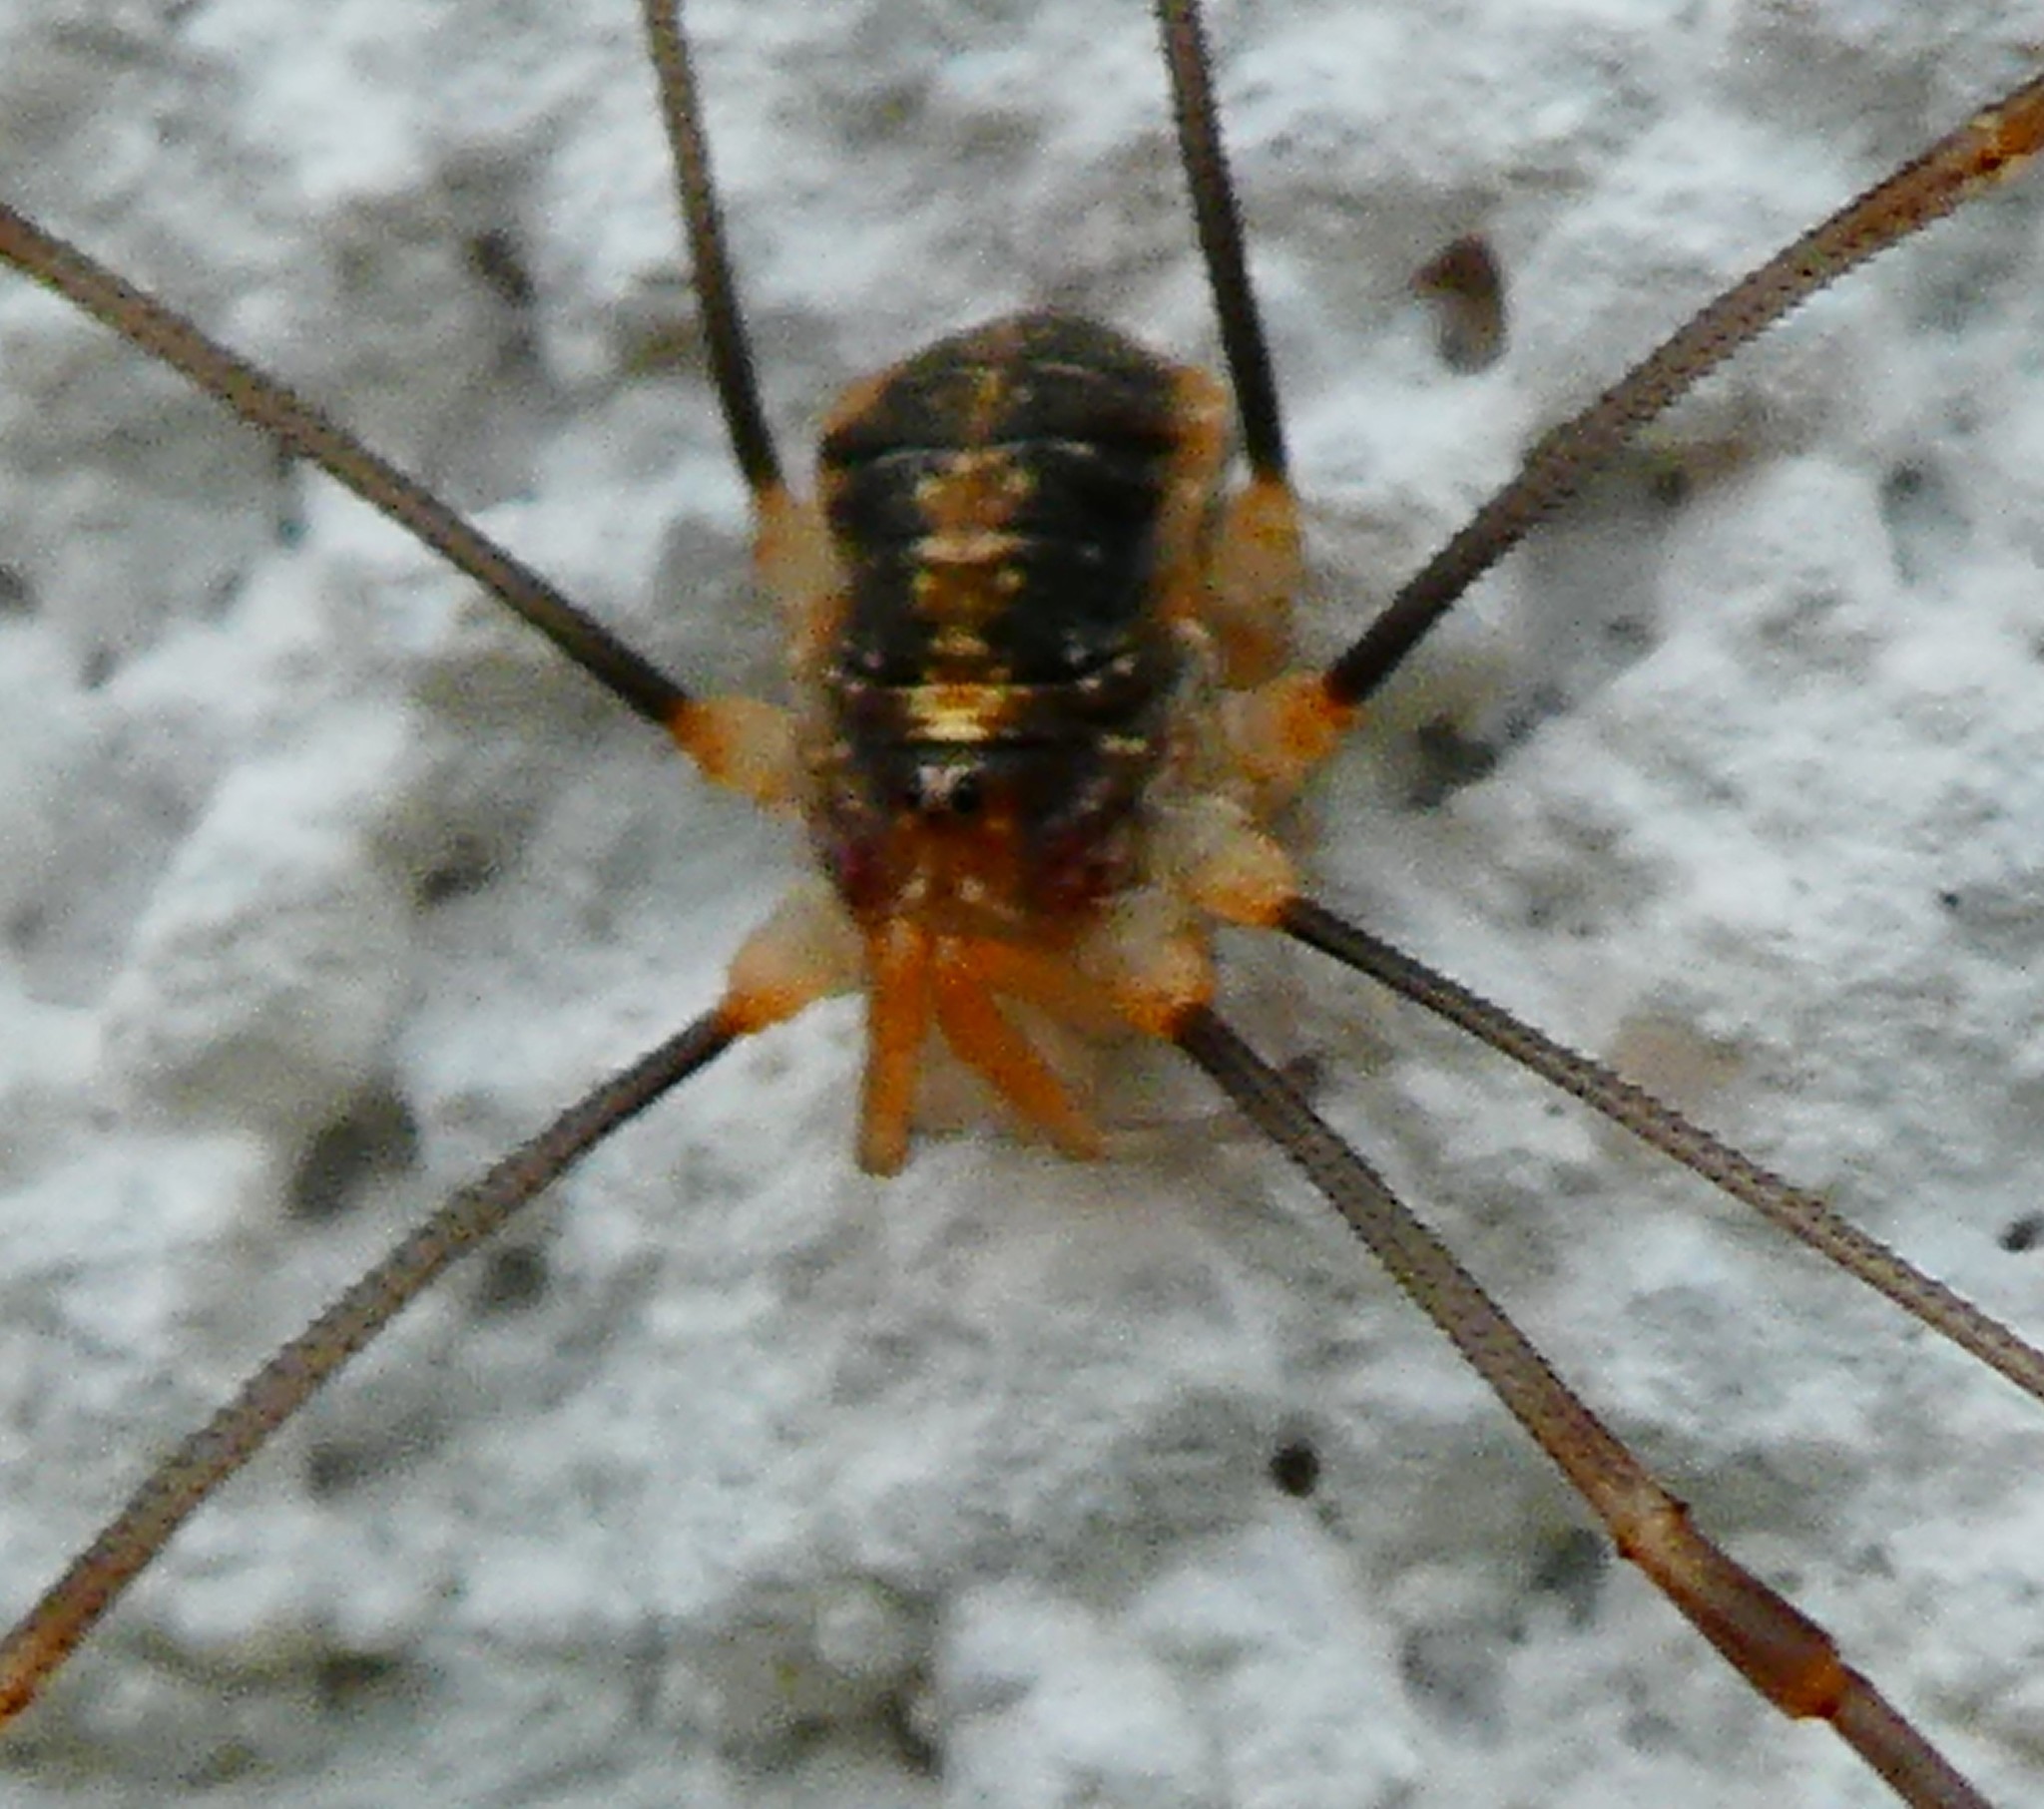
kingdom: Animalia
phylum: Arthropoda
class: Arachnida
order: Opiliones
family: Phalangiidae
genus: Opilio
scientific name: Opilio canestrinii
